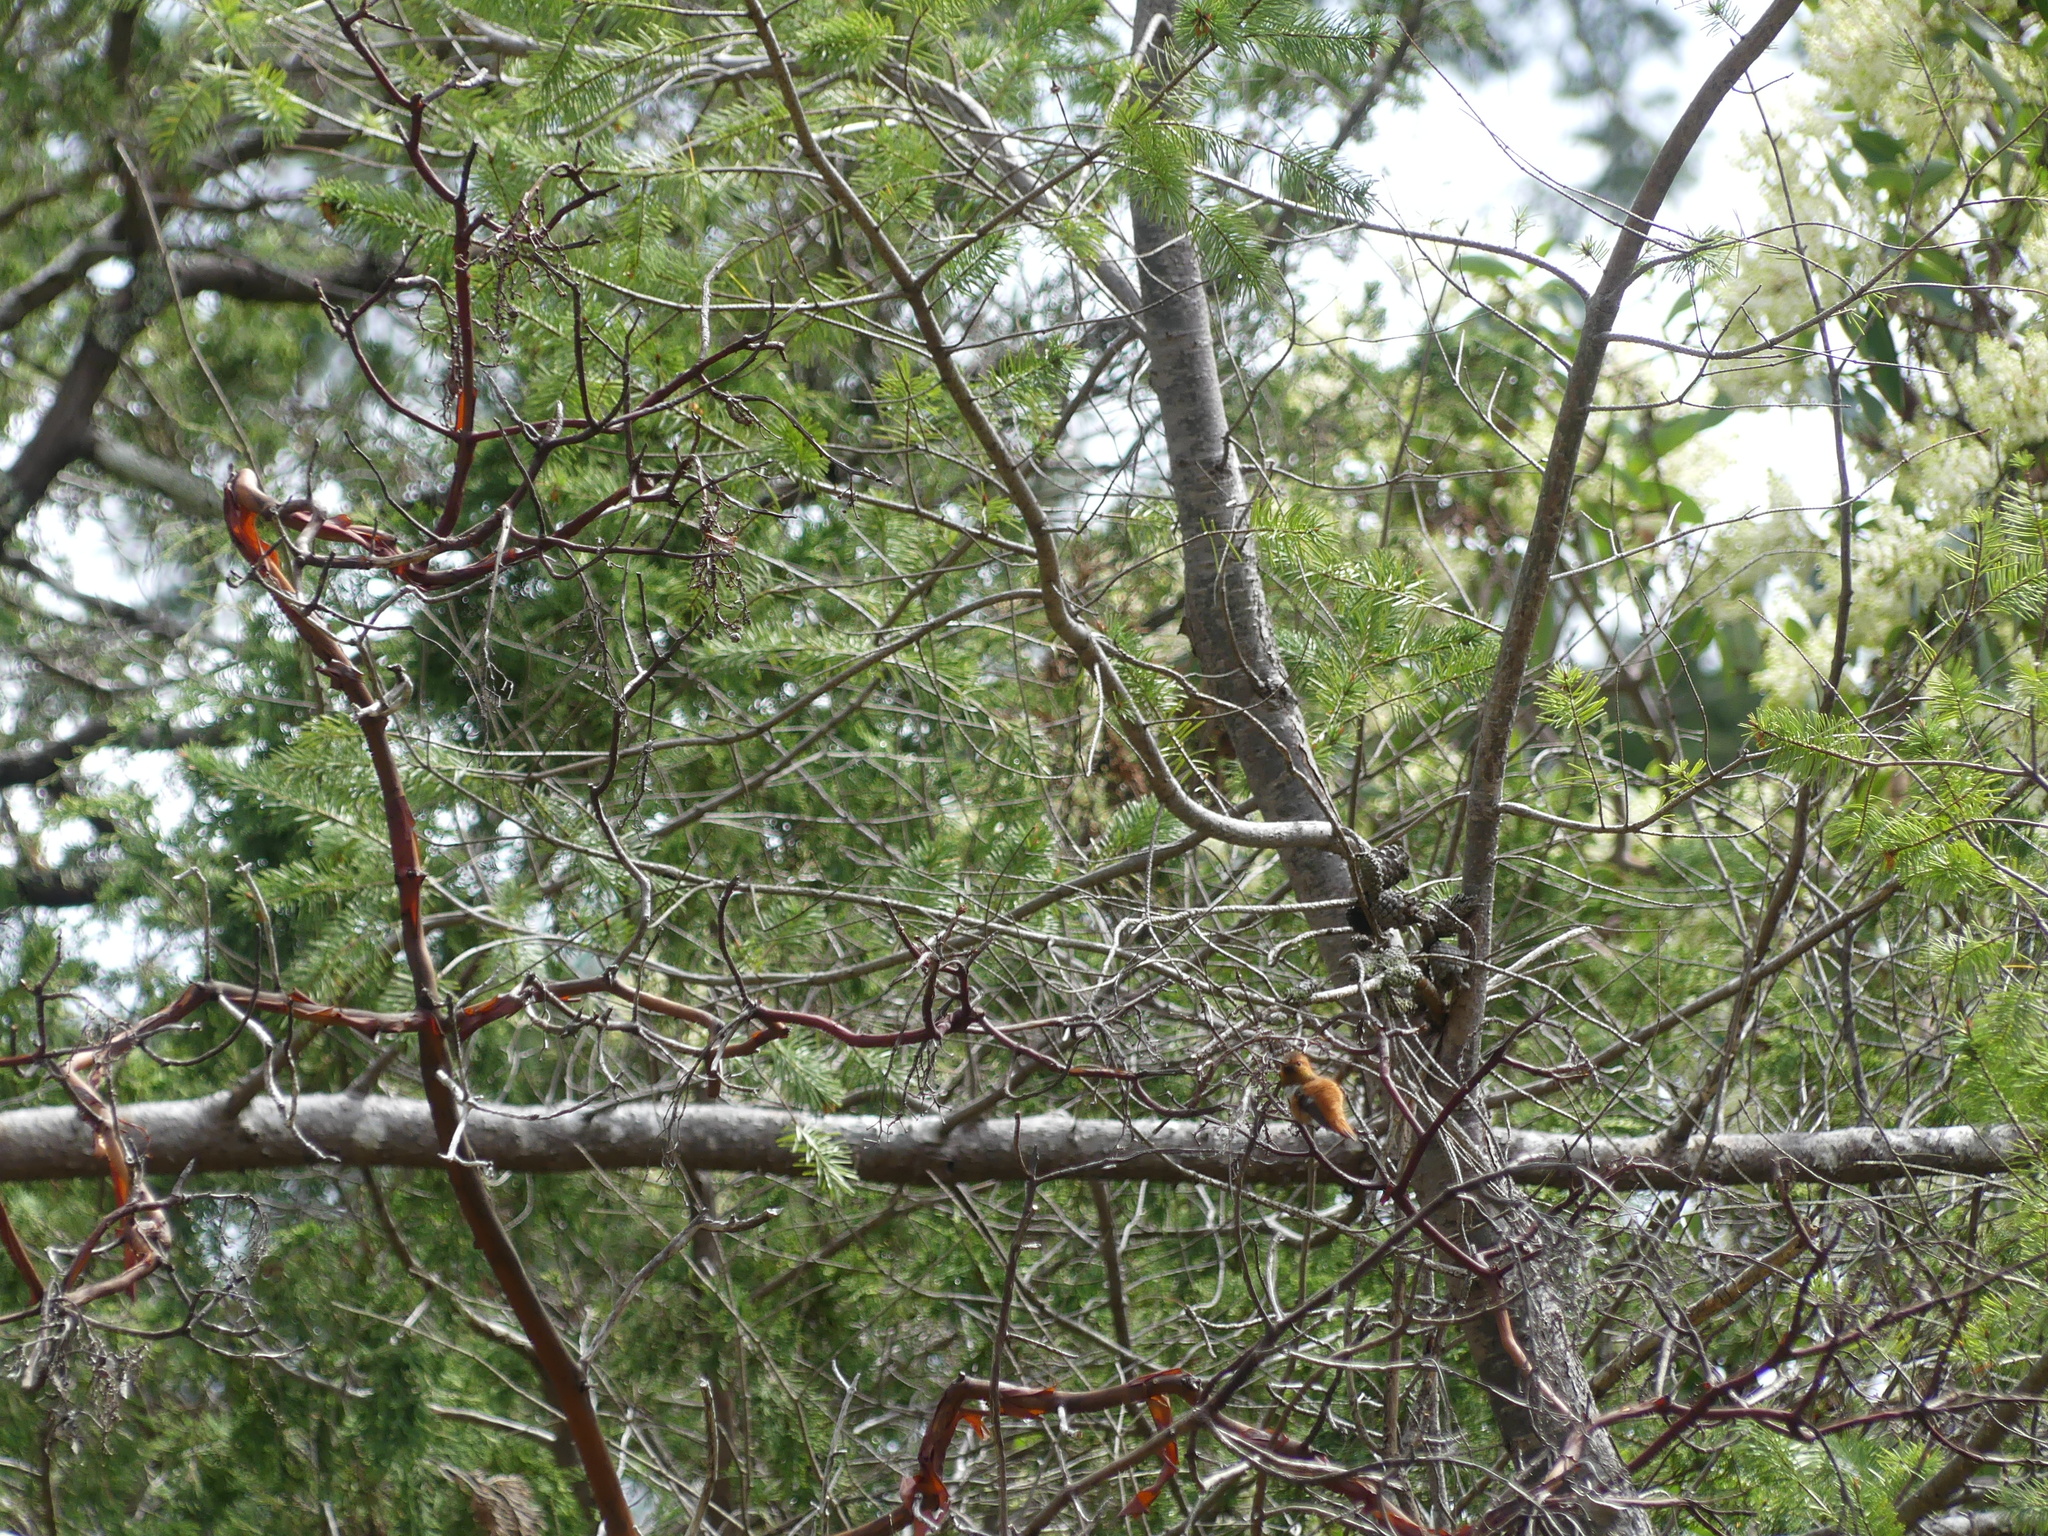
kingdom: Animalia
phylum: Chordata
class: Aves
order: Apodiformes
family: Trochilidae
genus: Selasphorus
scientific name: Selasphorus rufus
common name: Rufous hummingbird
